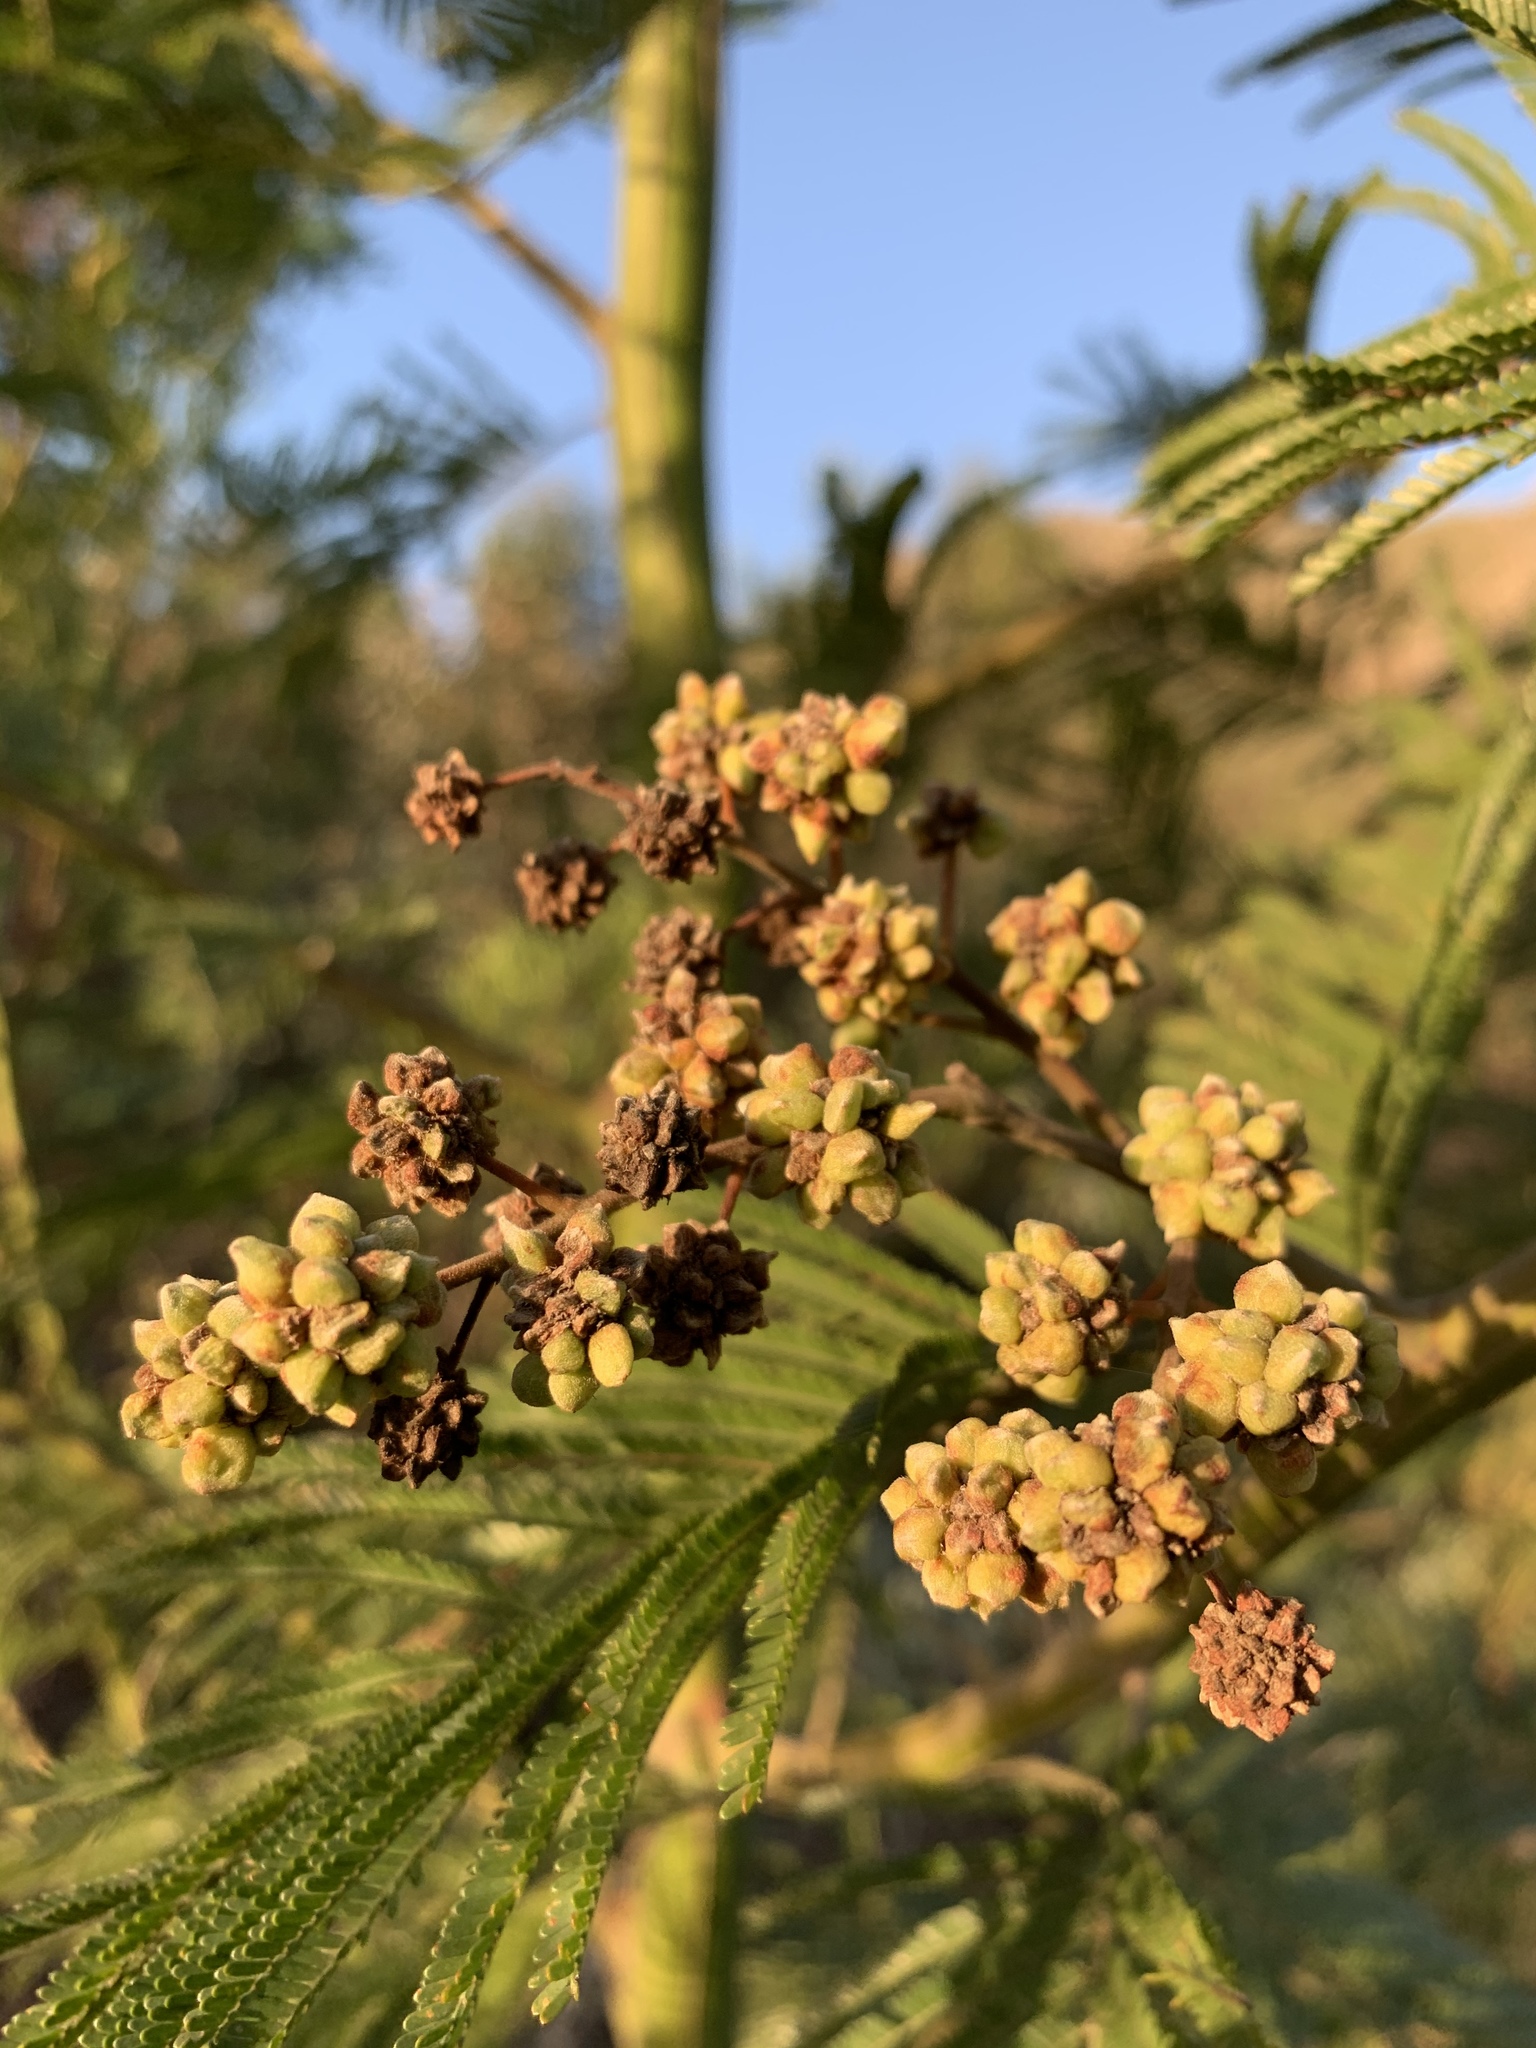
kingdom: Animalia
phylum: Arthropoda
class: Insecta
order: Diptera
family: Cecidomyiidae
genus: Dasineura
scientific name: Dasineura rubiformis
